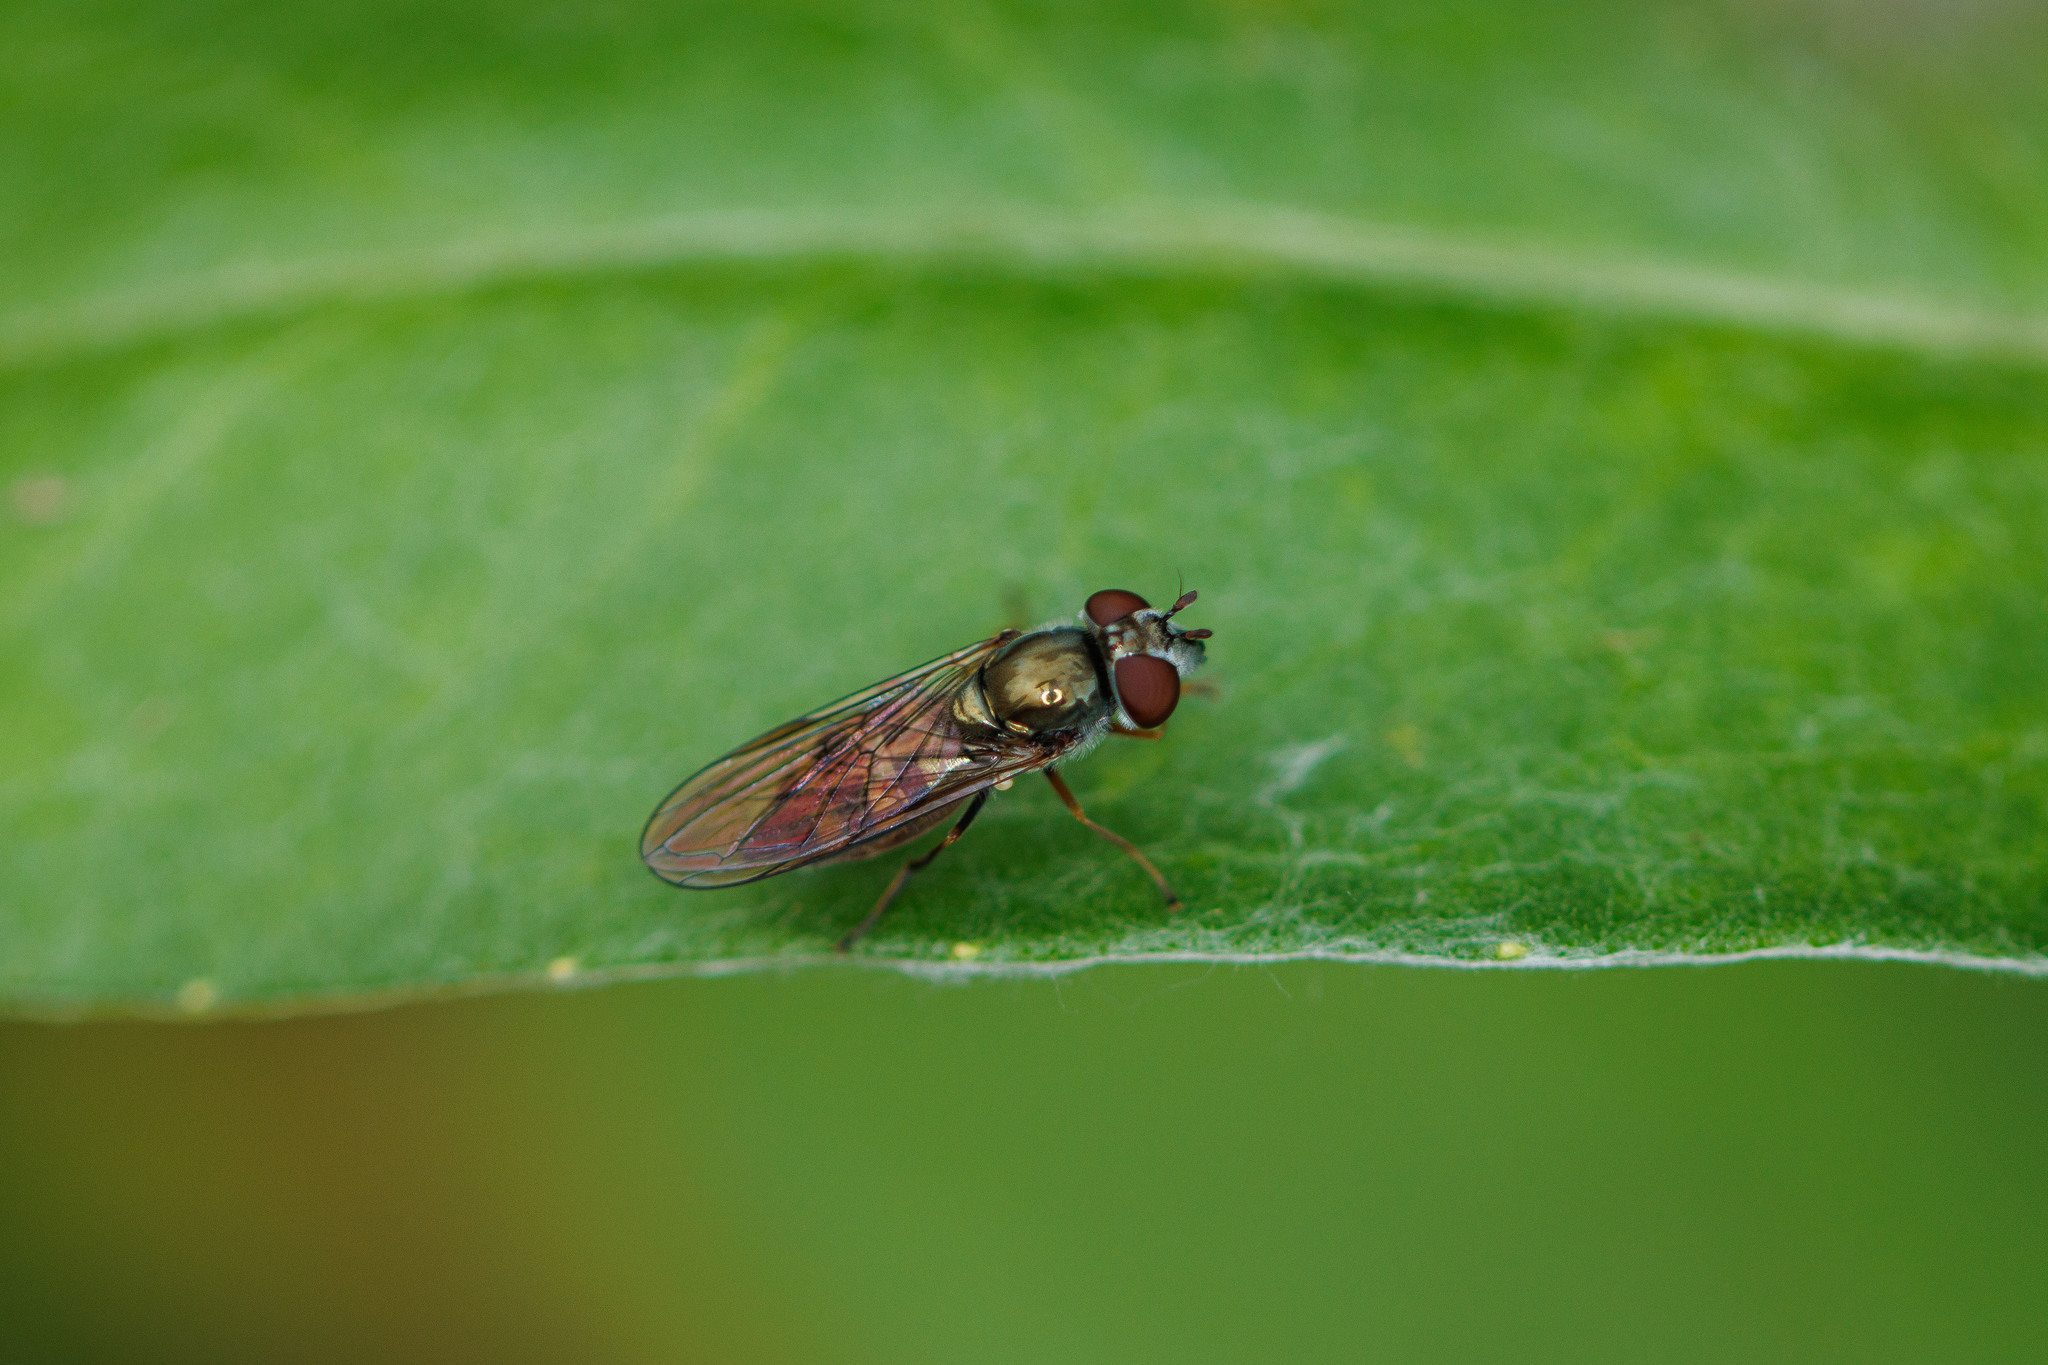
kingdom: Animalia
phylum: Arthropoda
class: Insecta
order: Diptera
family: Syrphidae
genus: Platycheirus
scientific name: Platycheirus trichopus
